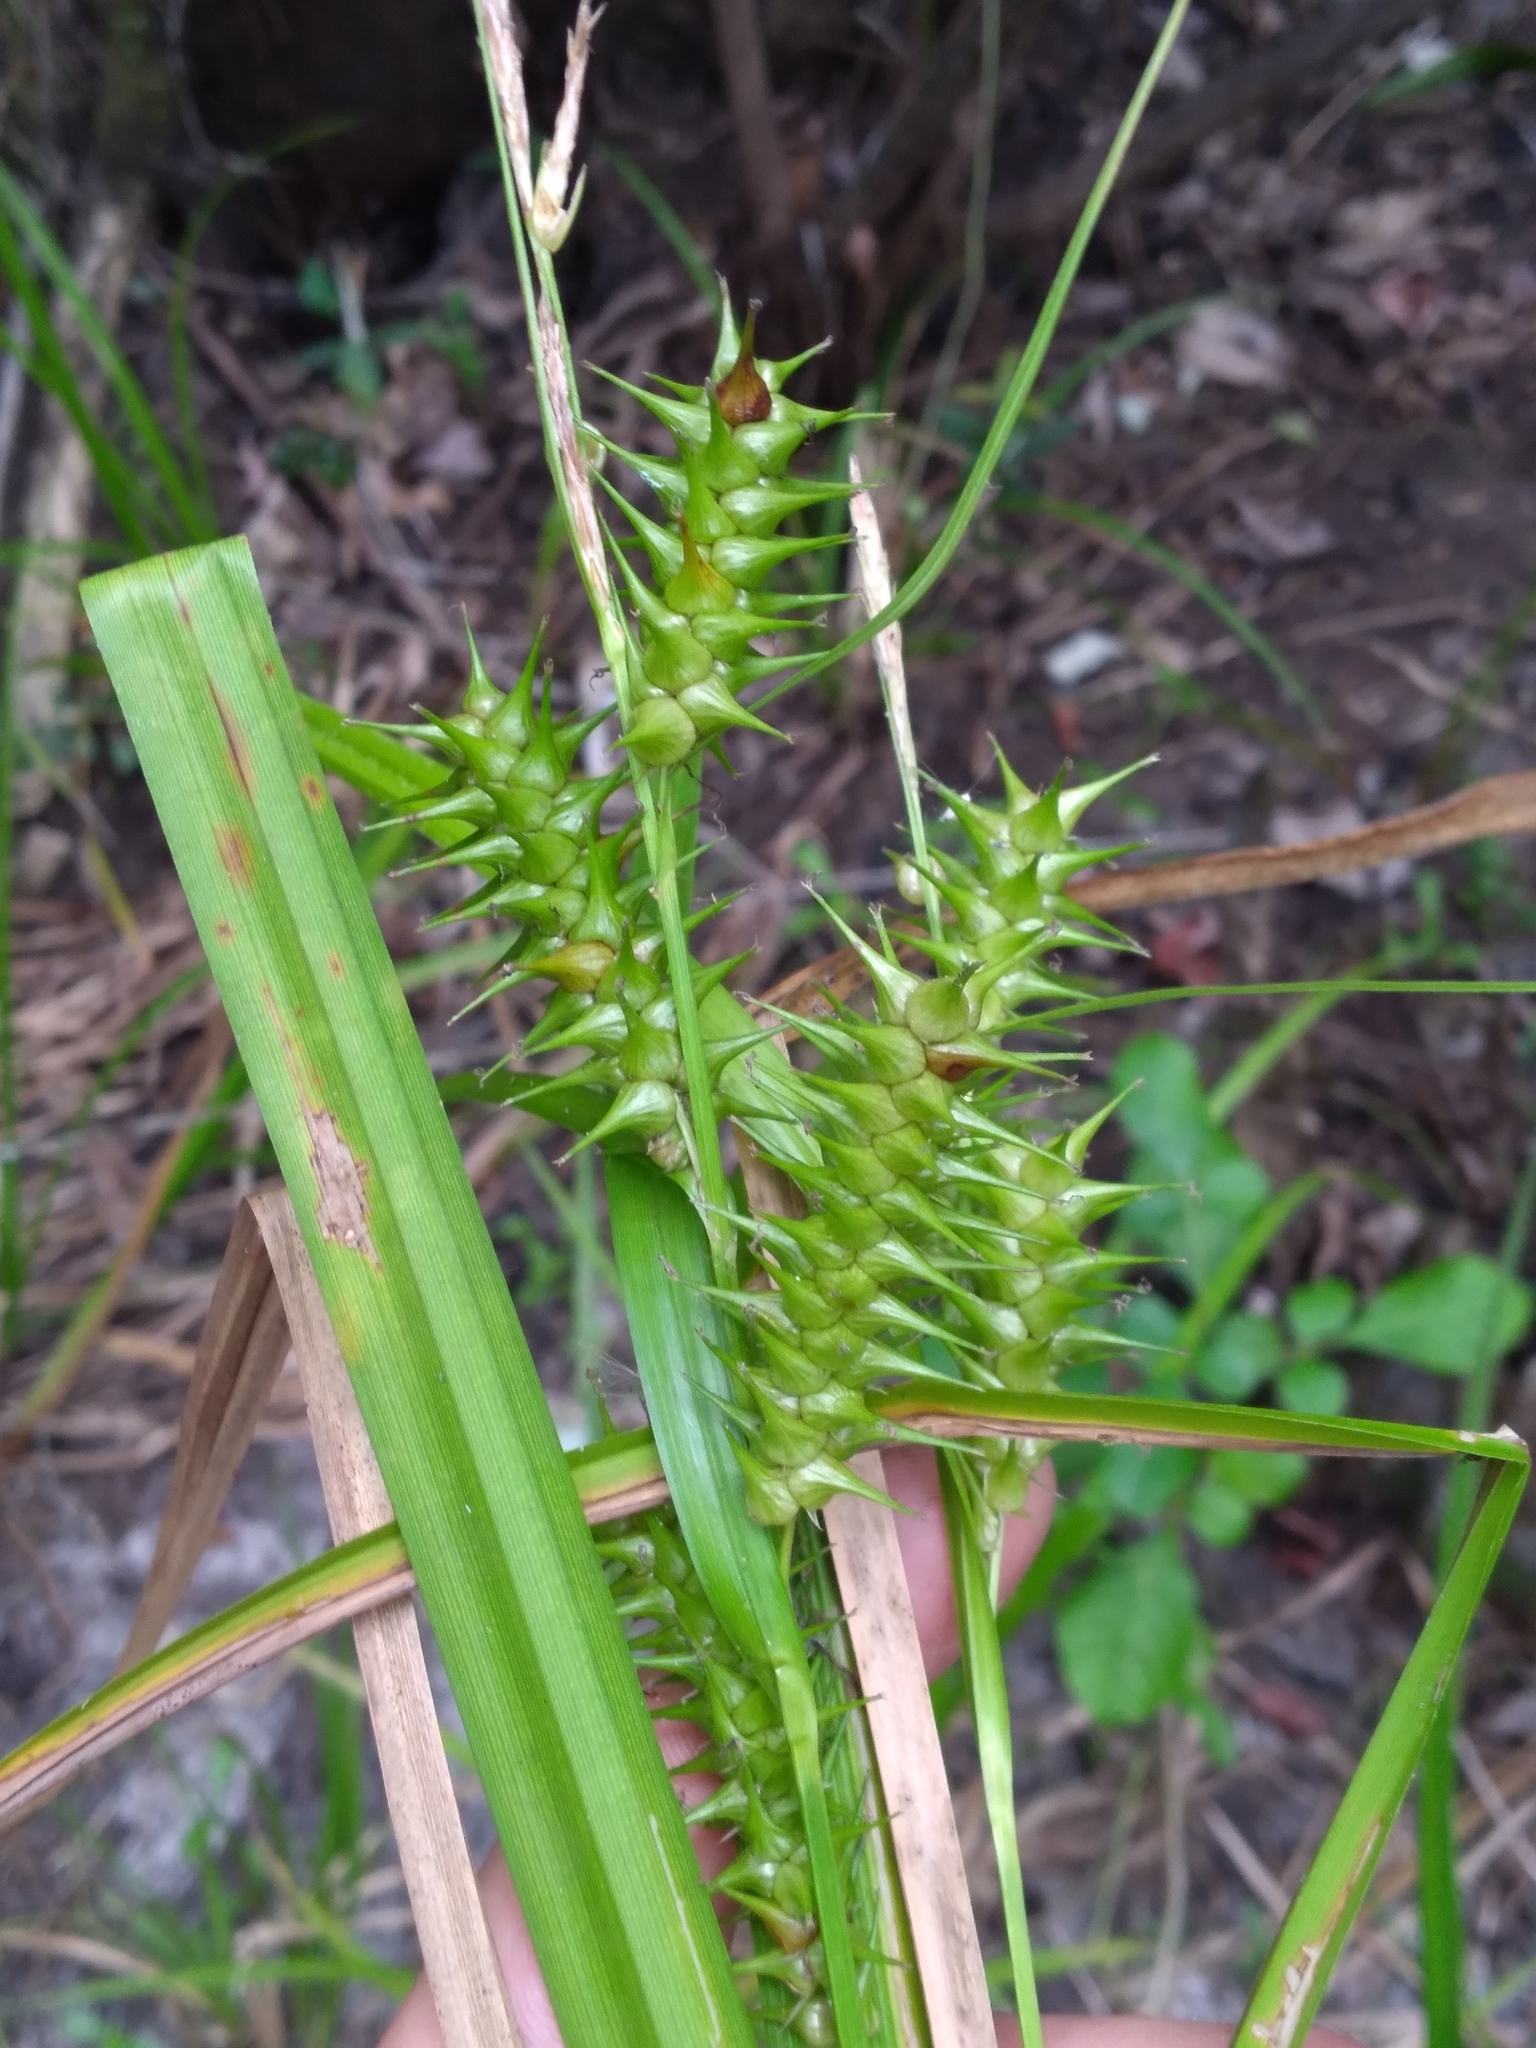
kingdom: Plantae
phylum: Tracheophyta
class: Liliopsida
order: Poales
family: Cyperaceae
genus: Carex
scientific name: Carex gigantea
